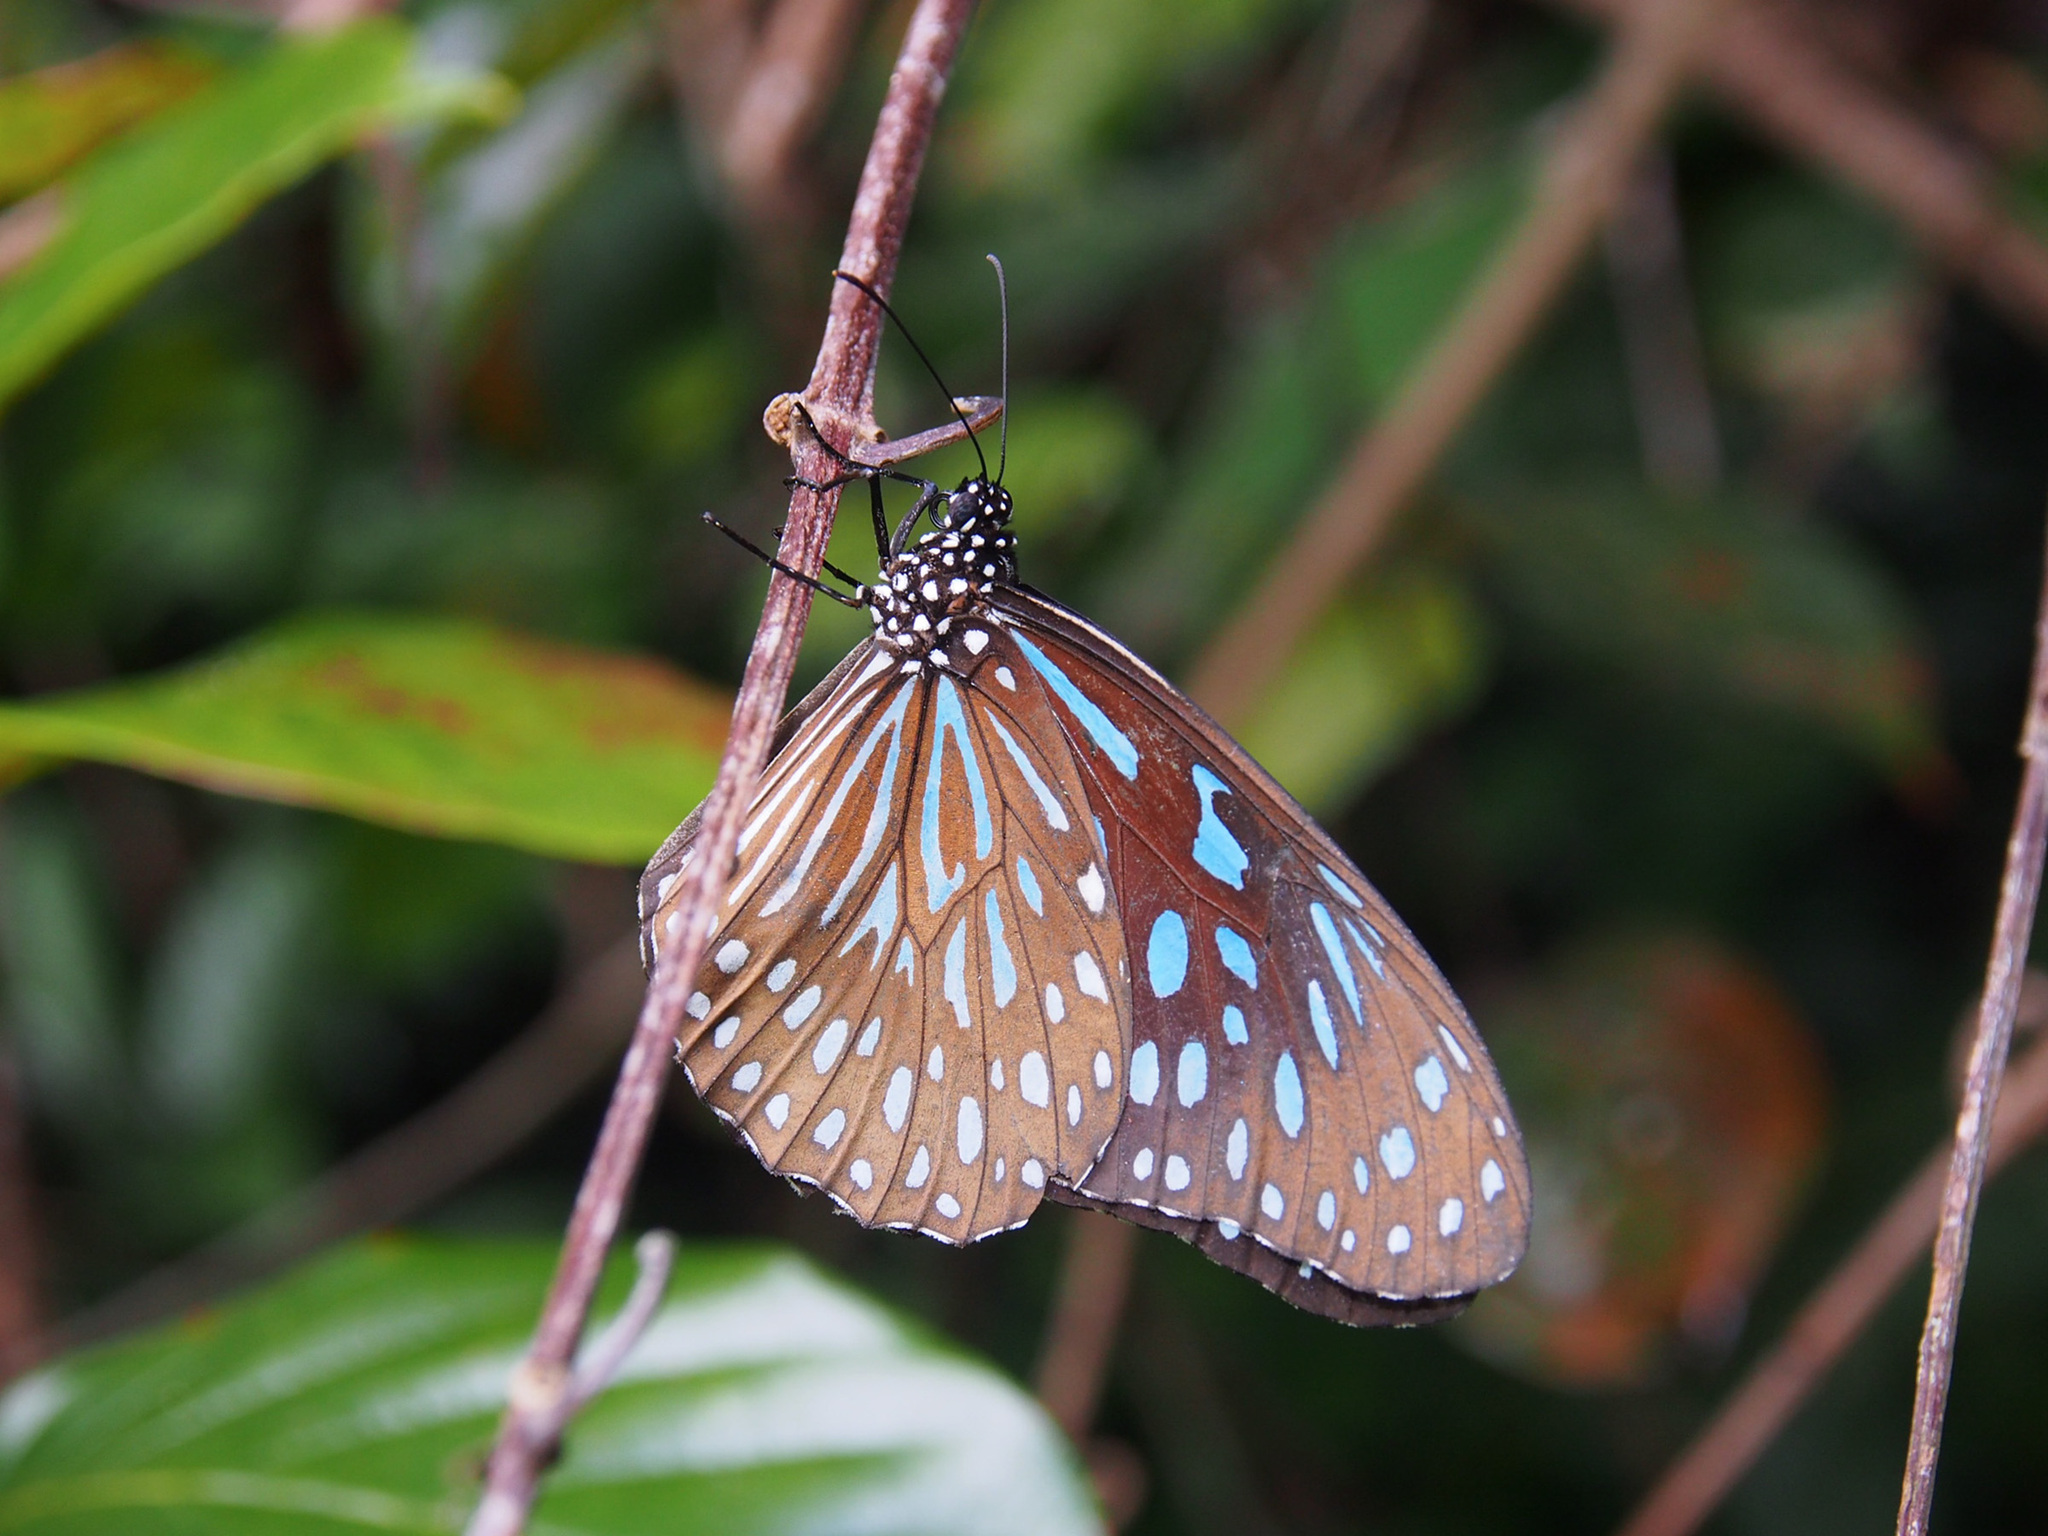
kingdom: Animalia
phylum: Arthropoda
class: Insecta
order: Lepidoptera
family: Nymphalidae
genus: Tirumala
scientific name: Tirumala septentrionis
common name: Dark blue tiger butterfly
